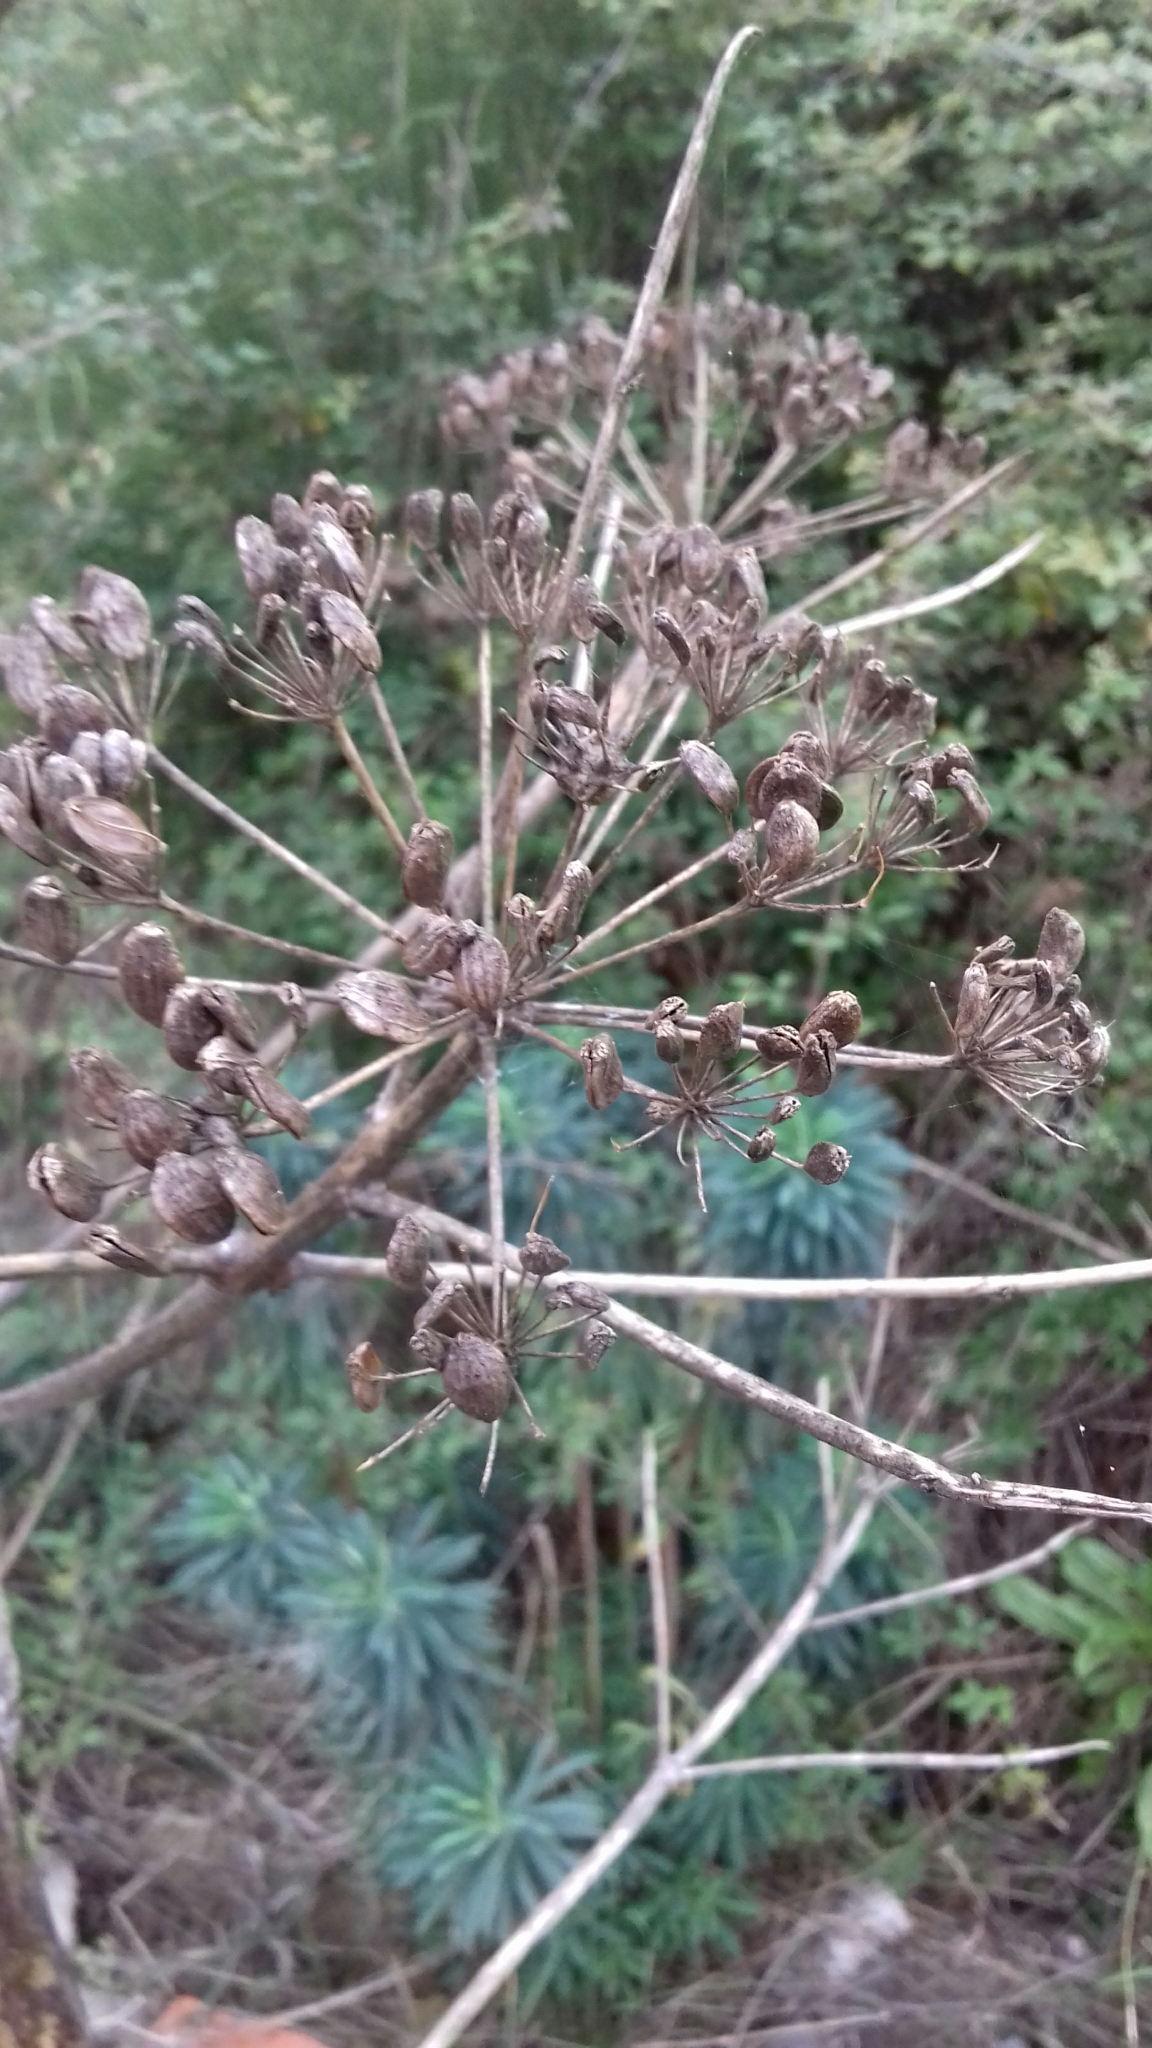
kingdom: Plantae
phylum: Tracheophyta
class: Magnoliopsida
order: Apiales
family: Apiaceae
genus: Ferula
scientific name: Ferula communis
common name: Giant fennel
